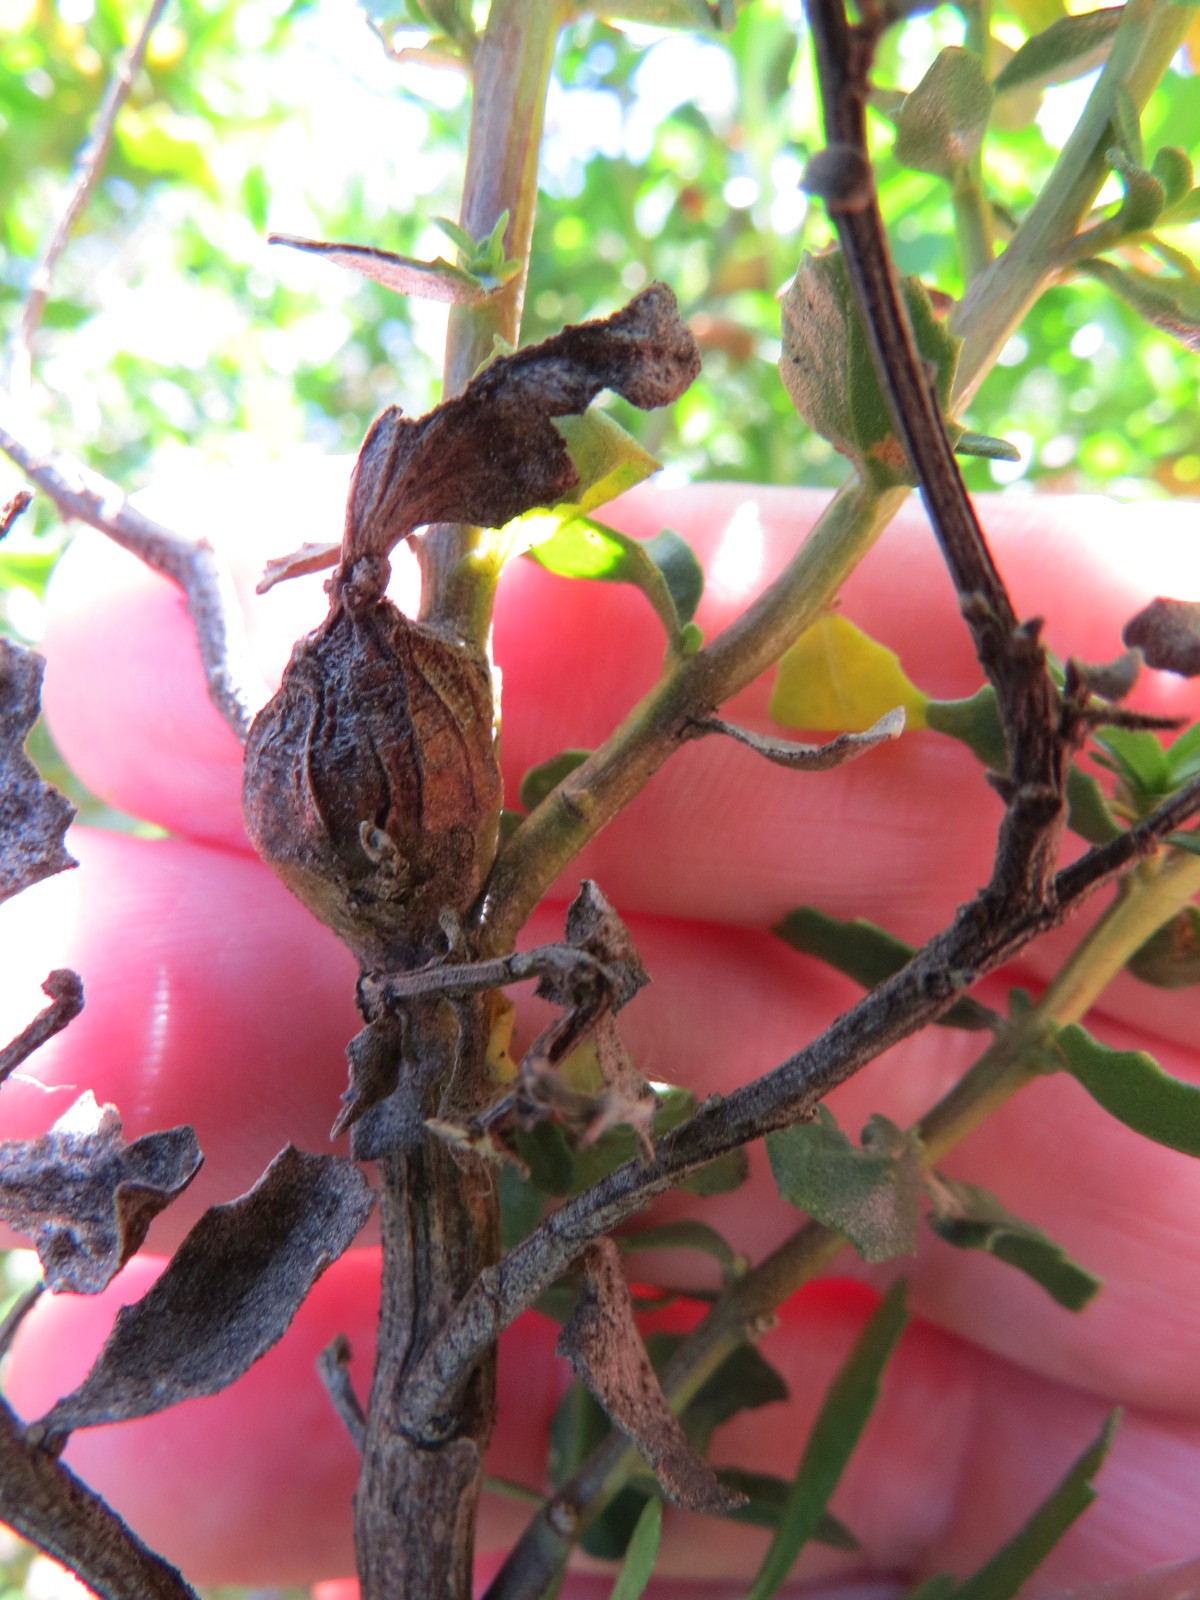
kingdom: Animalia
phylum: Arthropoda
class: Insecta
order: Lepidoptera
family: Gelechiidae
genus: Gnorimoschema
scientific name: Gnorimoschema baccharisella
